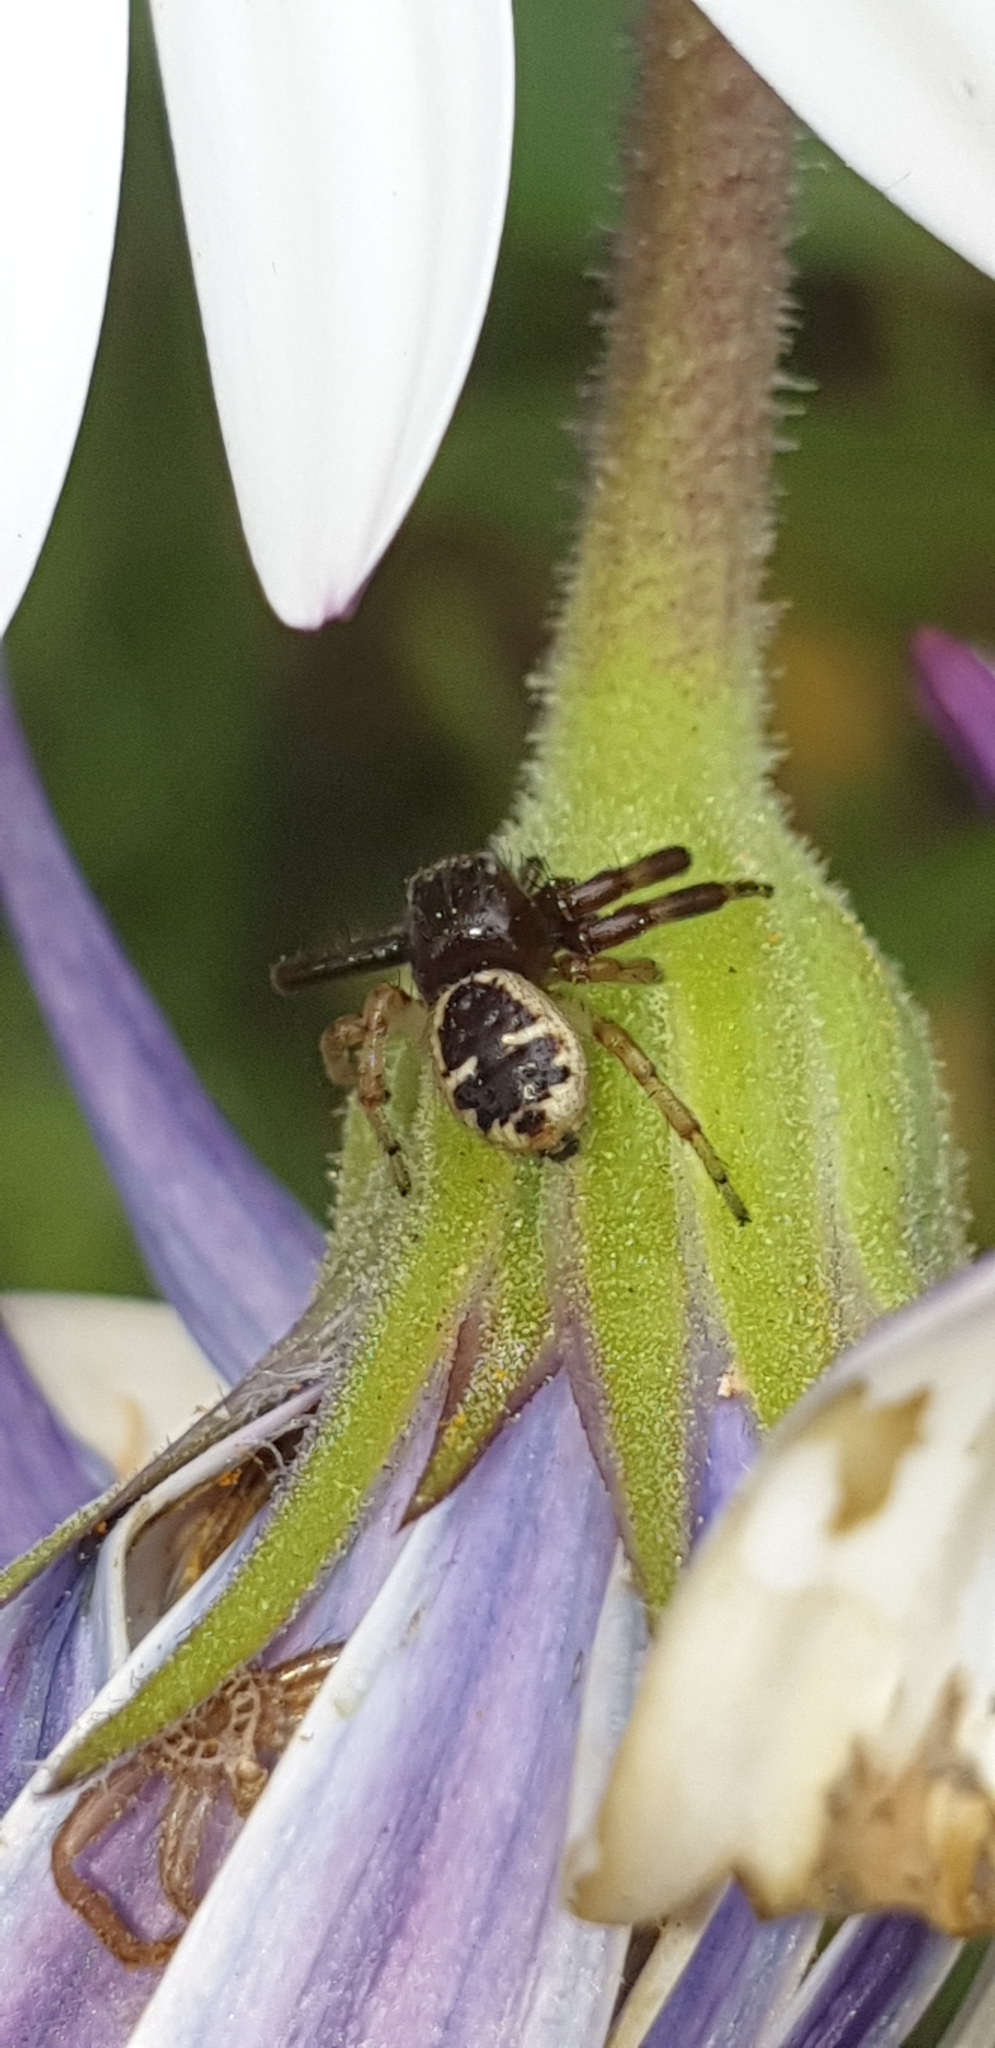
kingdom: Animalia
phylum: Arthropoda
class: Arachnida
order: Araneae
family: Thomisidae
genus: Synema
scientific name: Synema globosum
